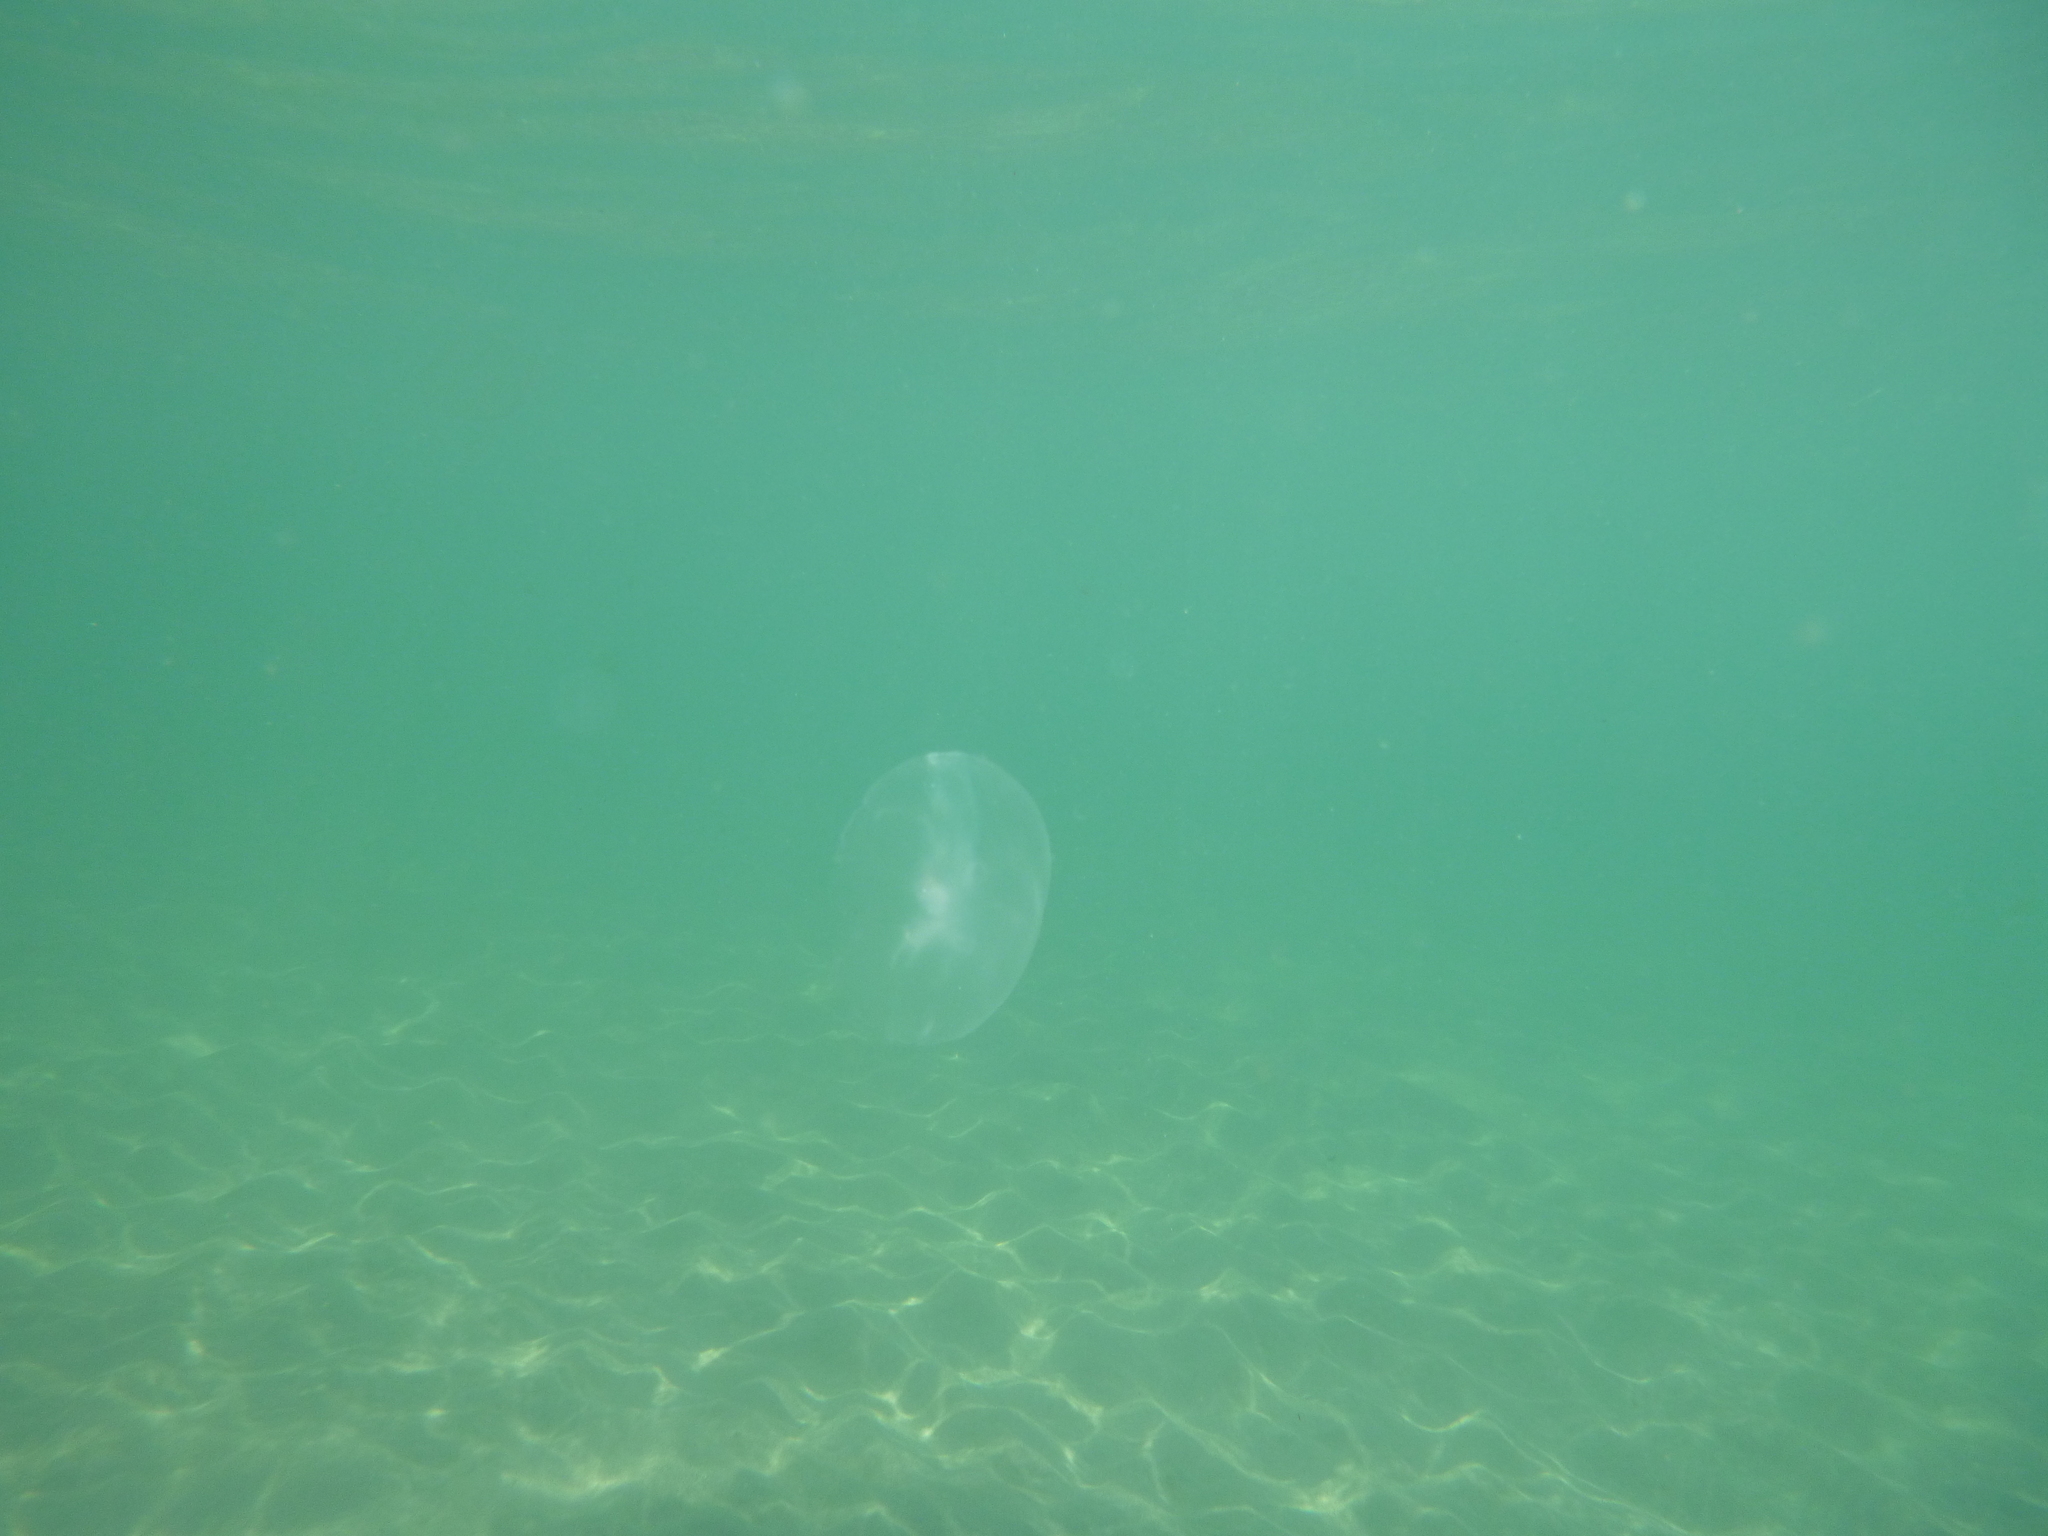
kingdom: Animalia
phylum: Cnidaria
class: Scyphozoa
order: Semaeostomeae
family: Ulmaridae
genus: Aurelia
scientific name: Aurelia aurita
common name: Moon jellyfish
